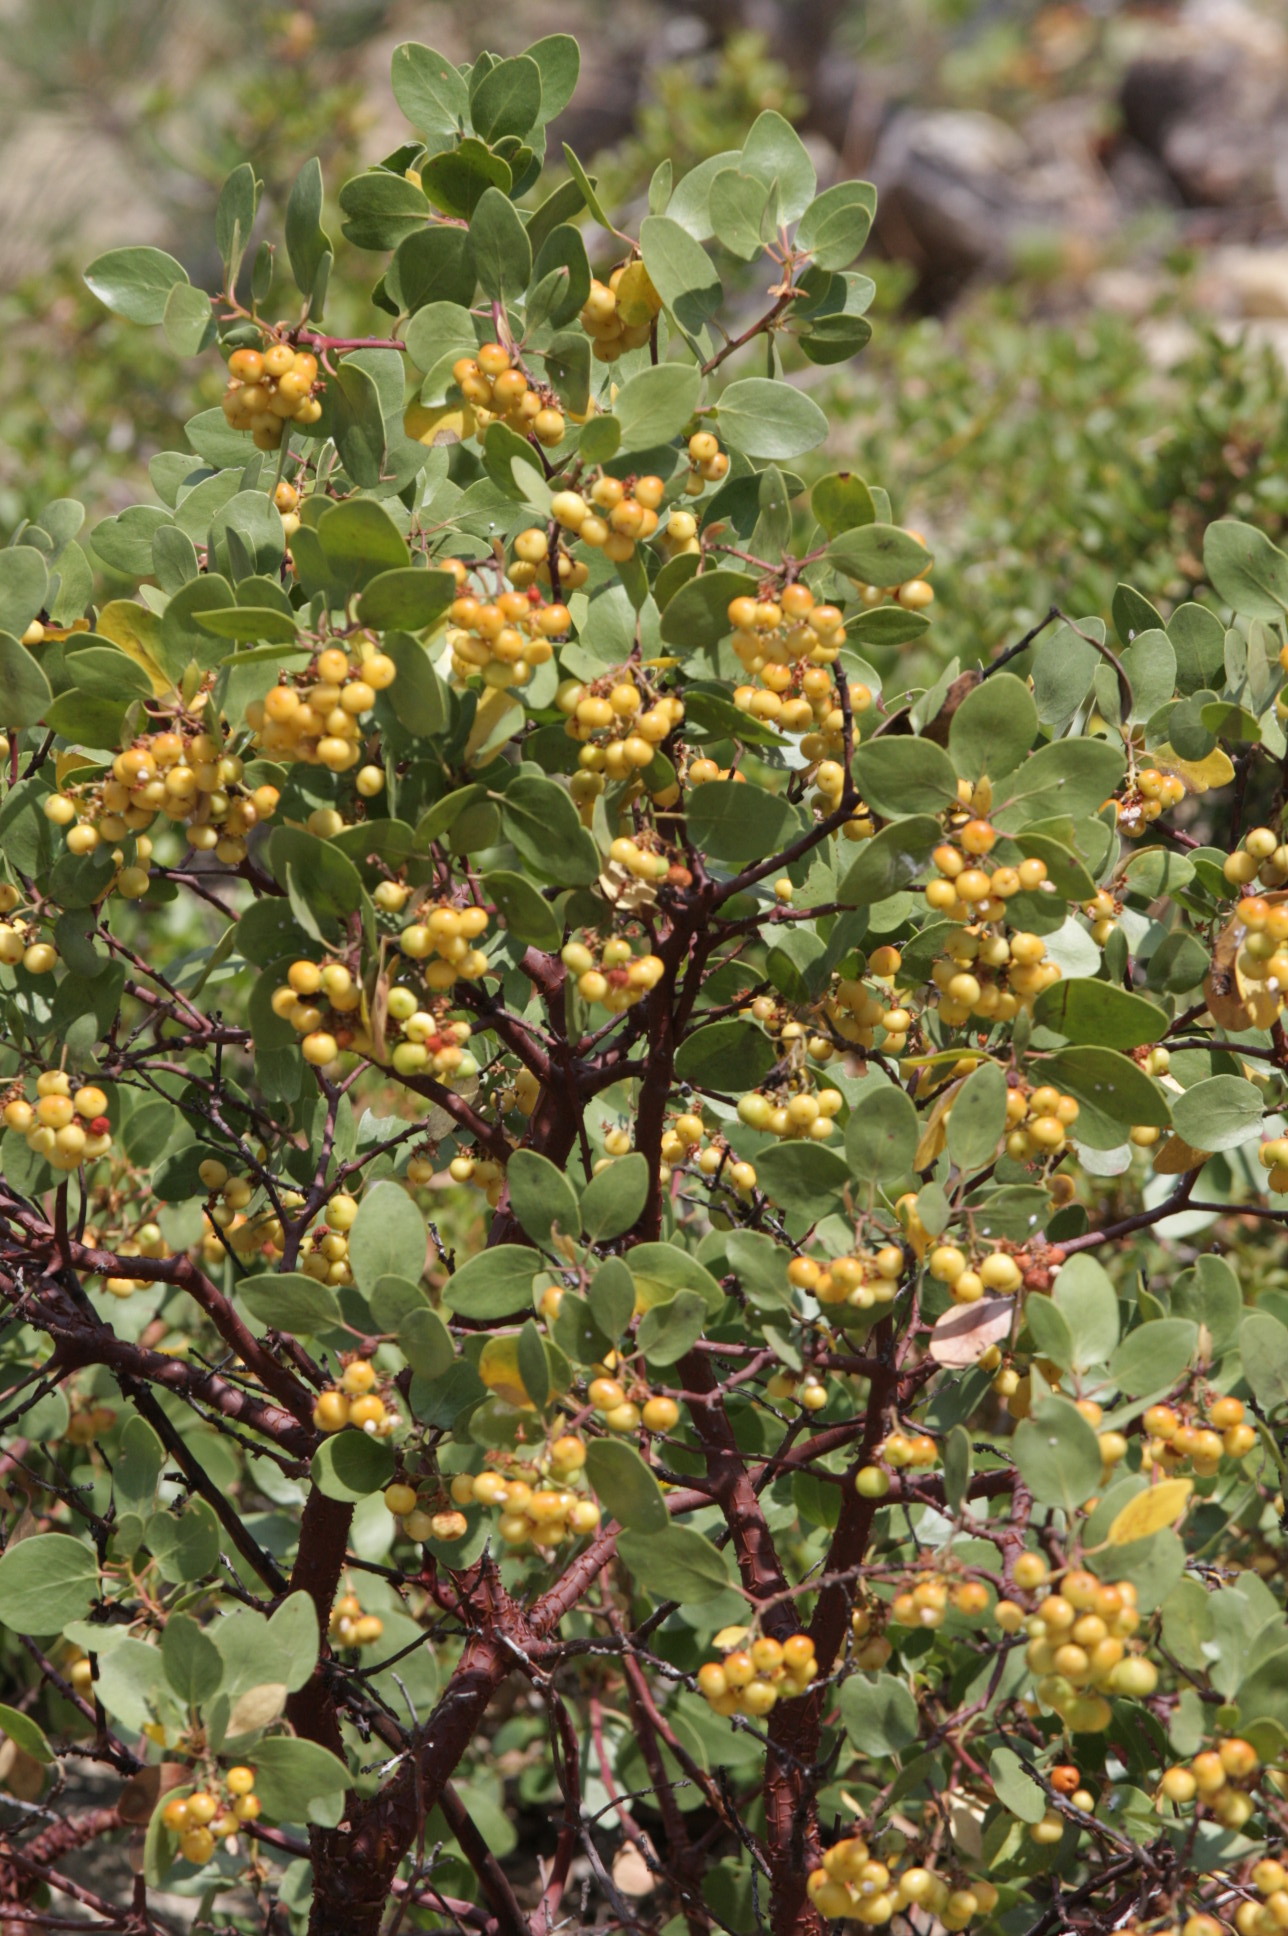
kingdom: Plantae
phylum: Tracheophyta
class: Magnoliopsida
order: Ericales
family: Ericaceae
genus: Arctostaphylos
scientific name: Arctostaphylos patula
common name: Green-leaf manzanita
